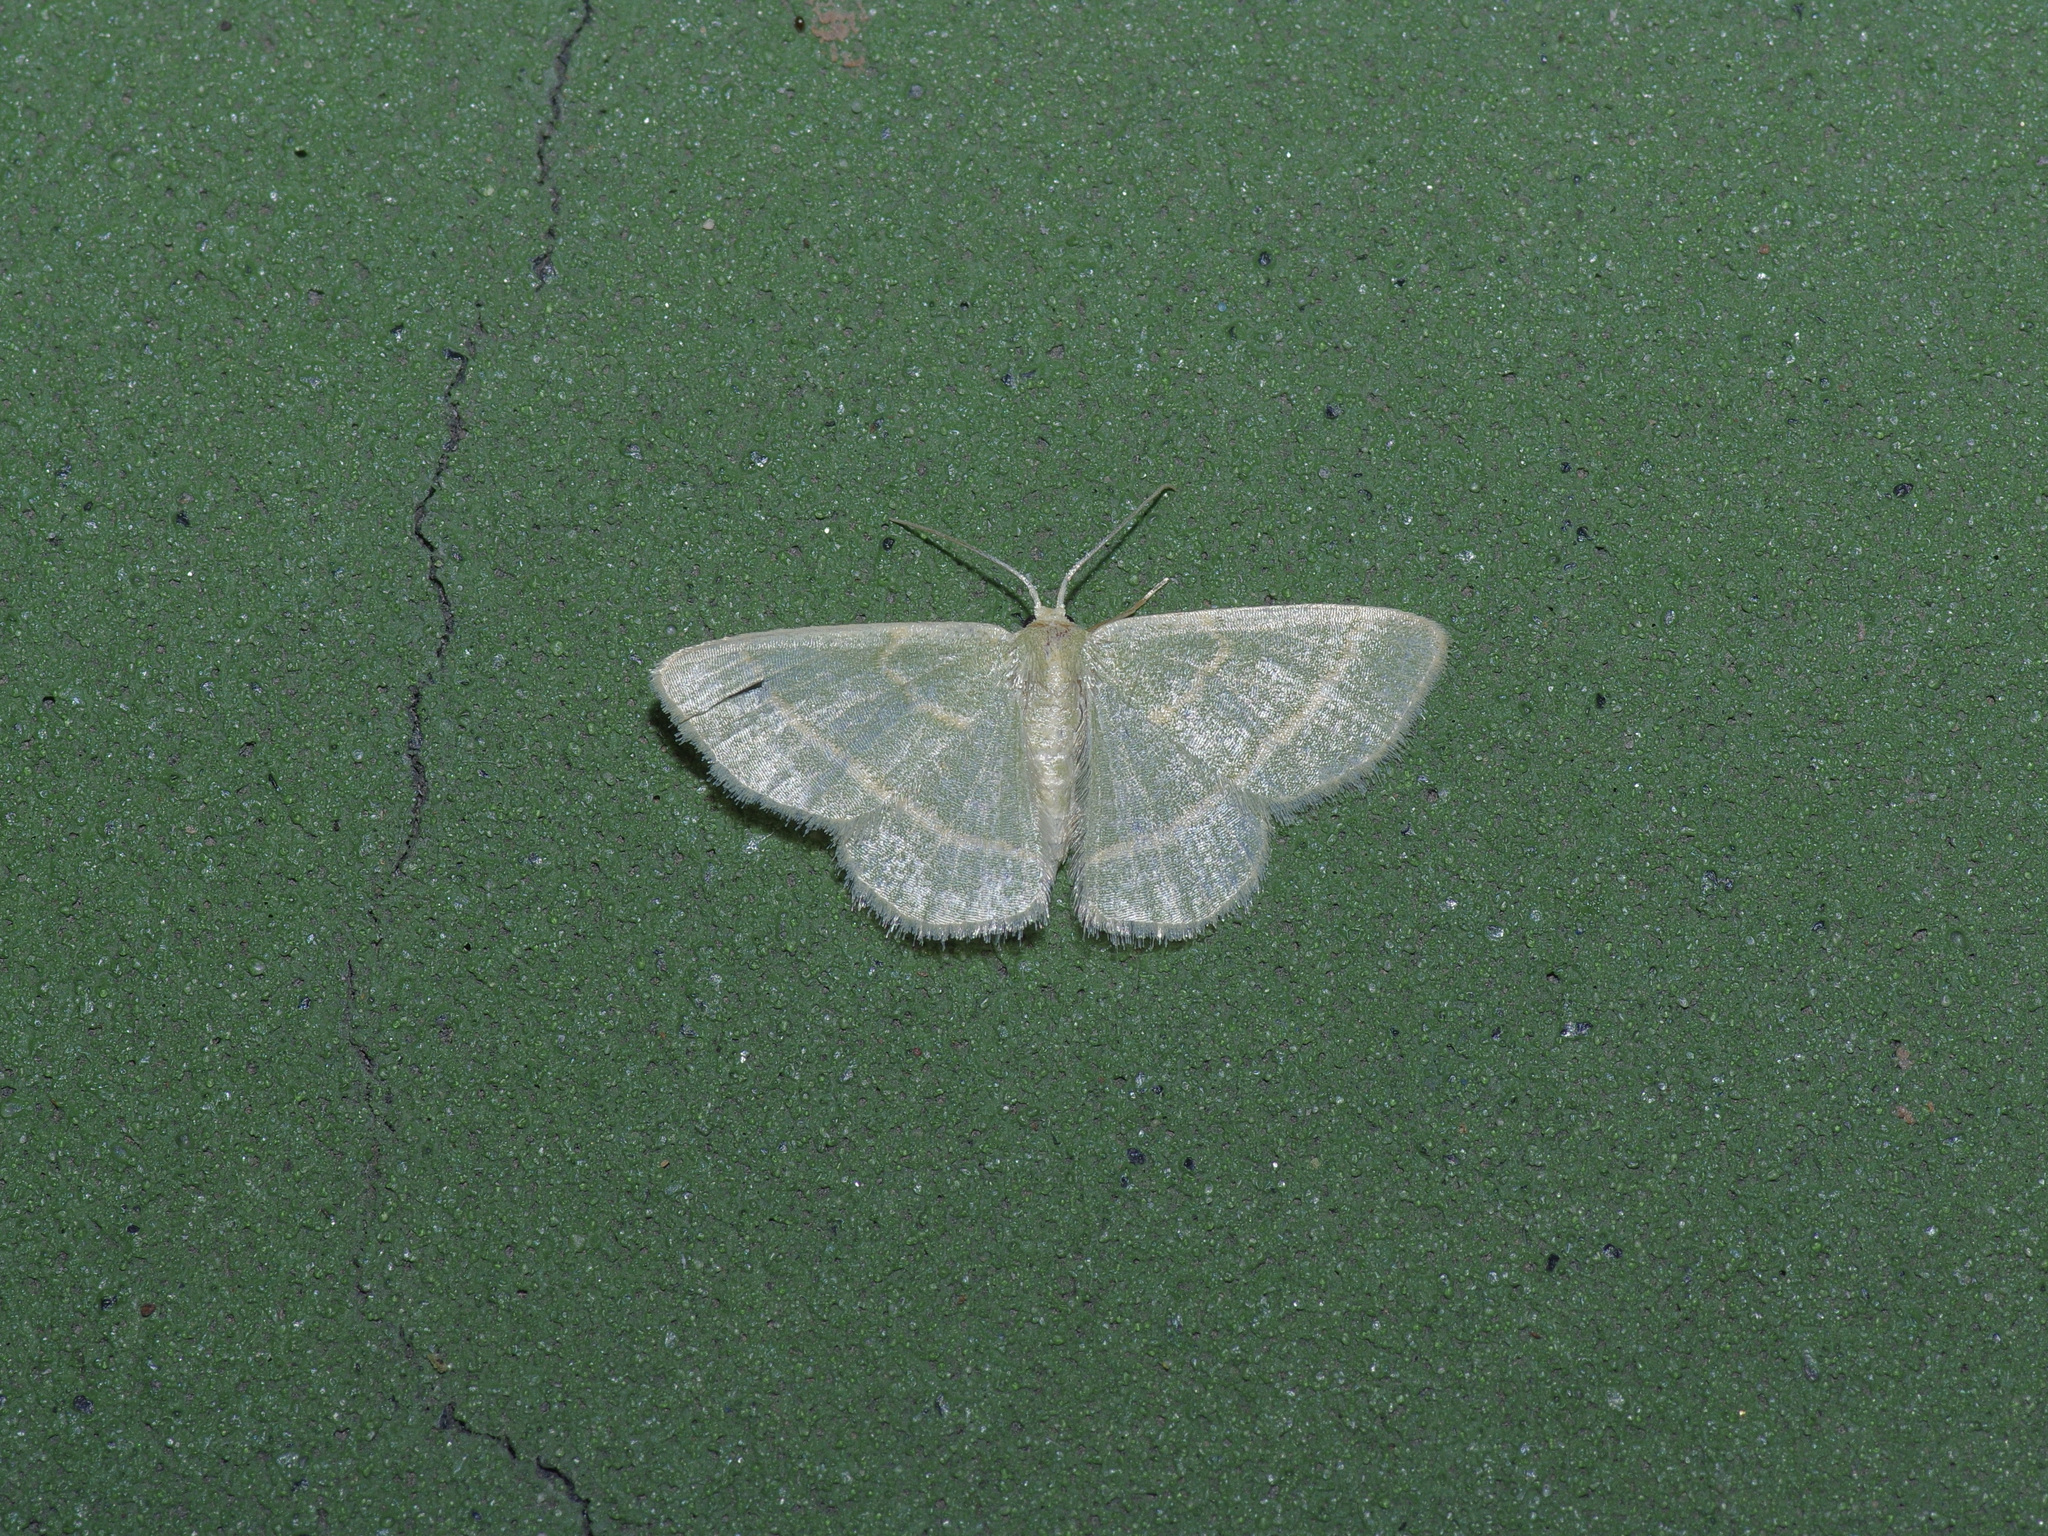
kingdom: Animalia
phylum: Arthropoda
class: Insecta
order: Lepidoptera
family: Geometridae
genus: Chlorochlamys
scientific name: Chlorochlamys chloroleucaria
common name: Blackberry looper
